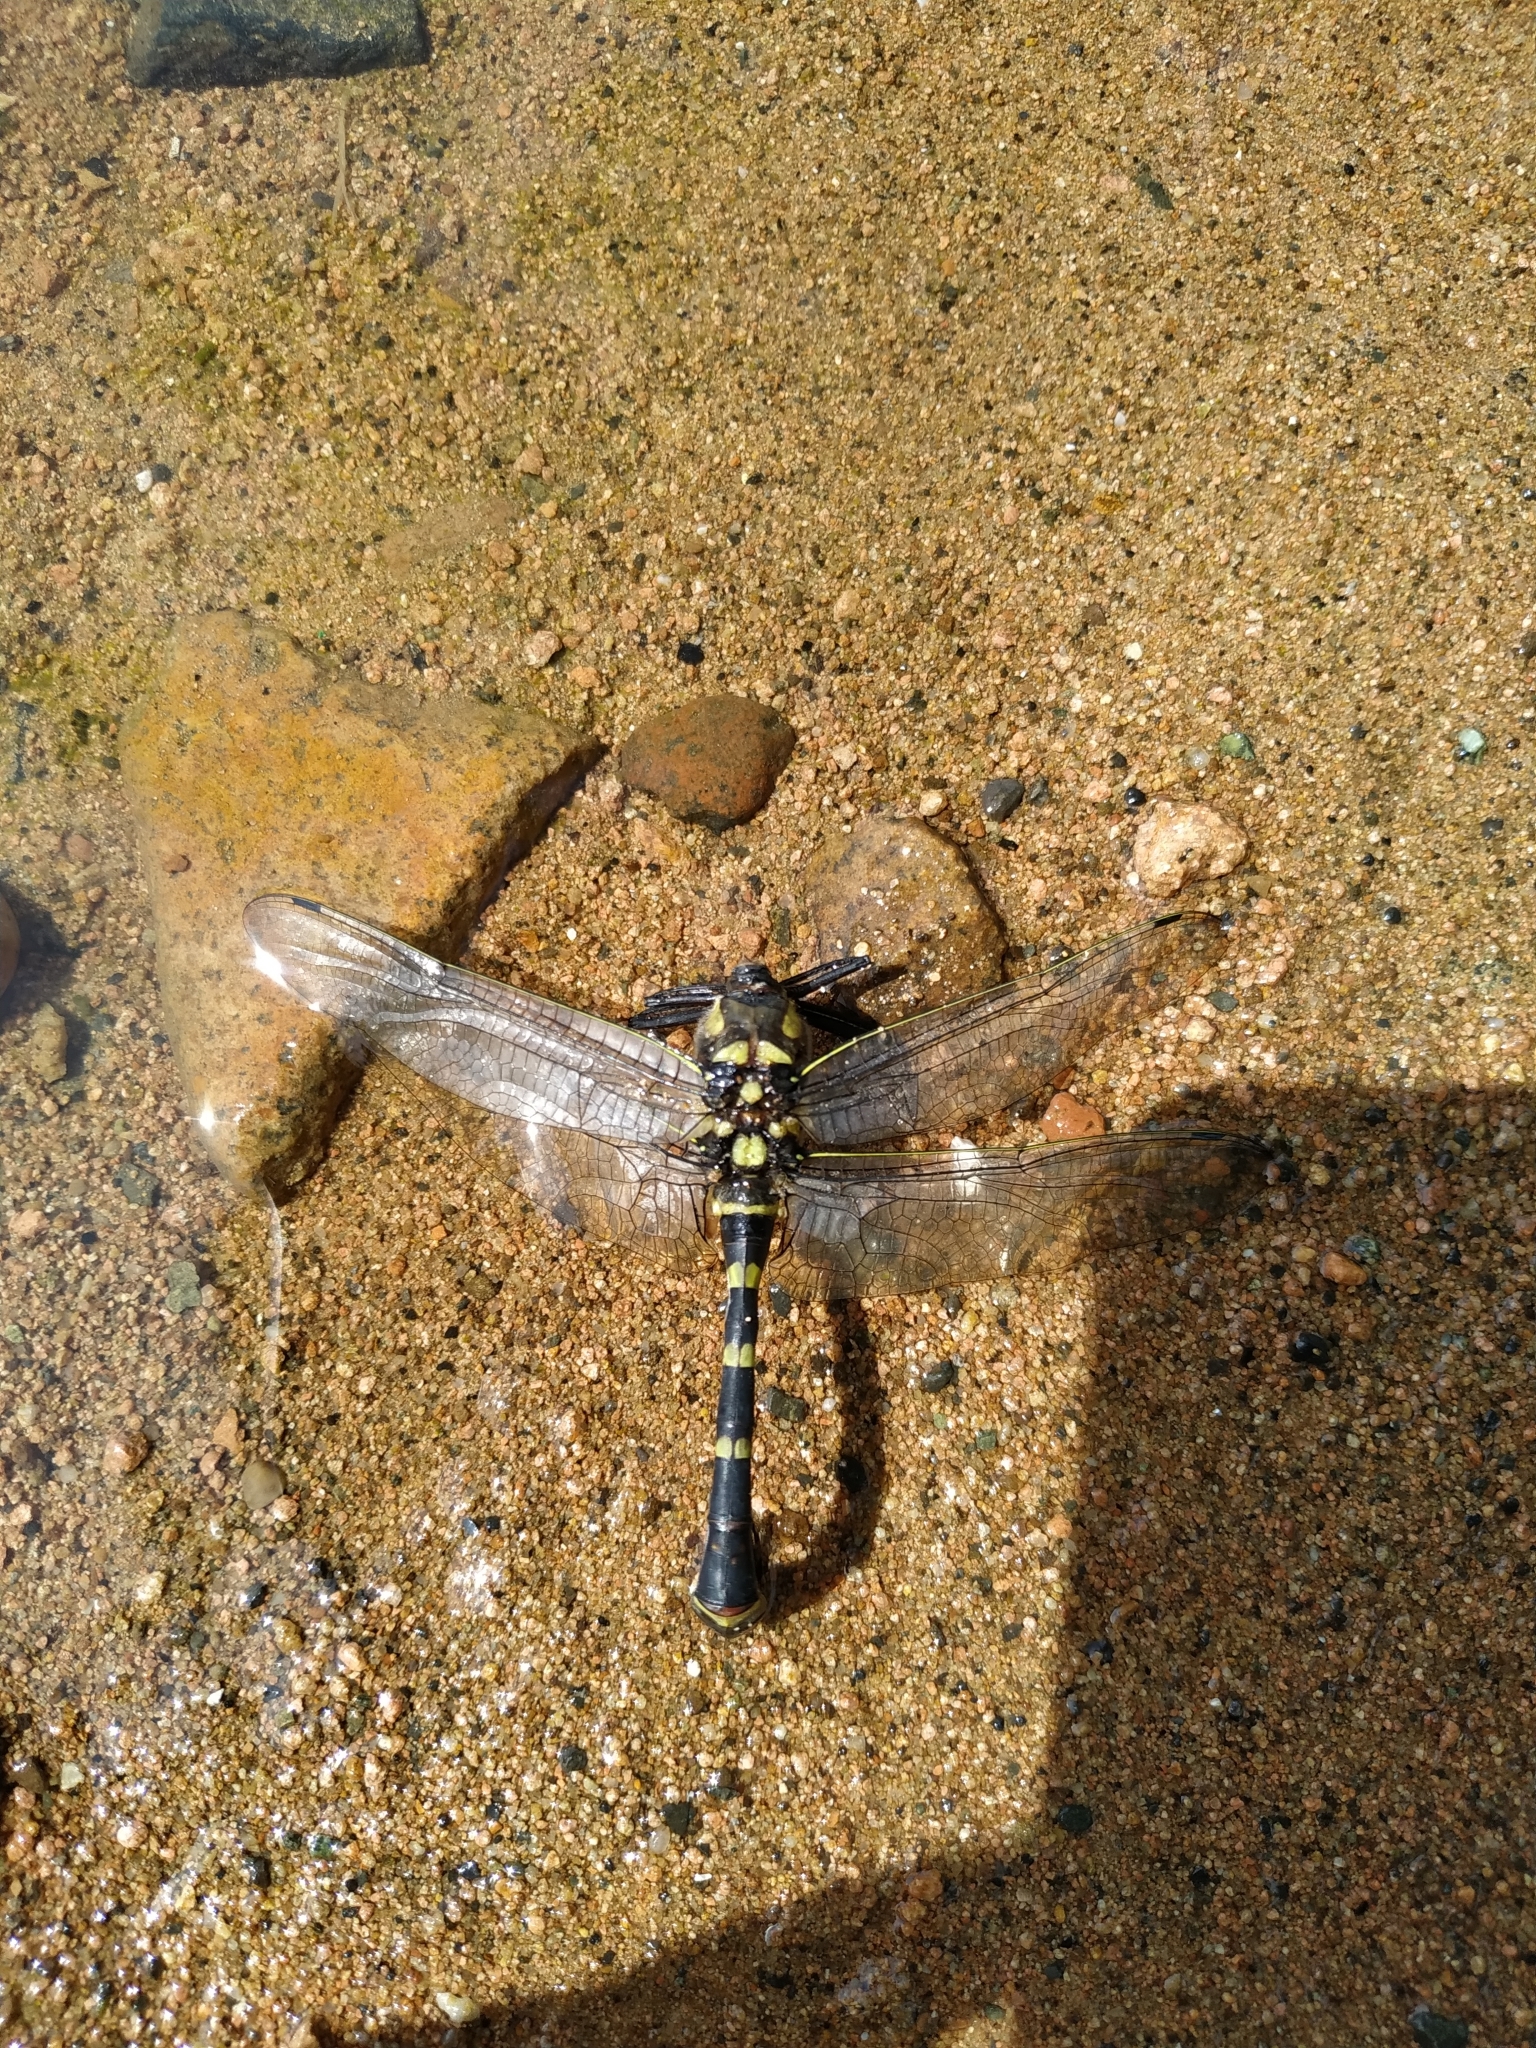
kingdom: Animalia
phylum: Arthropoda
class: Insecta
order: Odonata
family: Macromiidae
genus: Epophthalmia
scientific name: Epophthalmia elegans
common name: Regal pond cruiser
